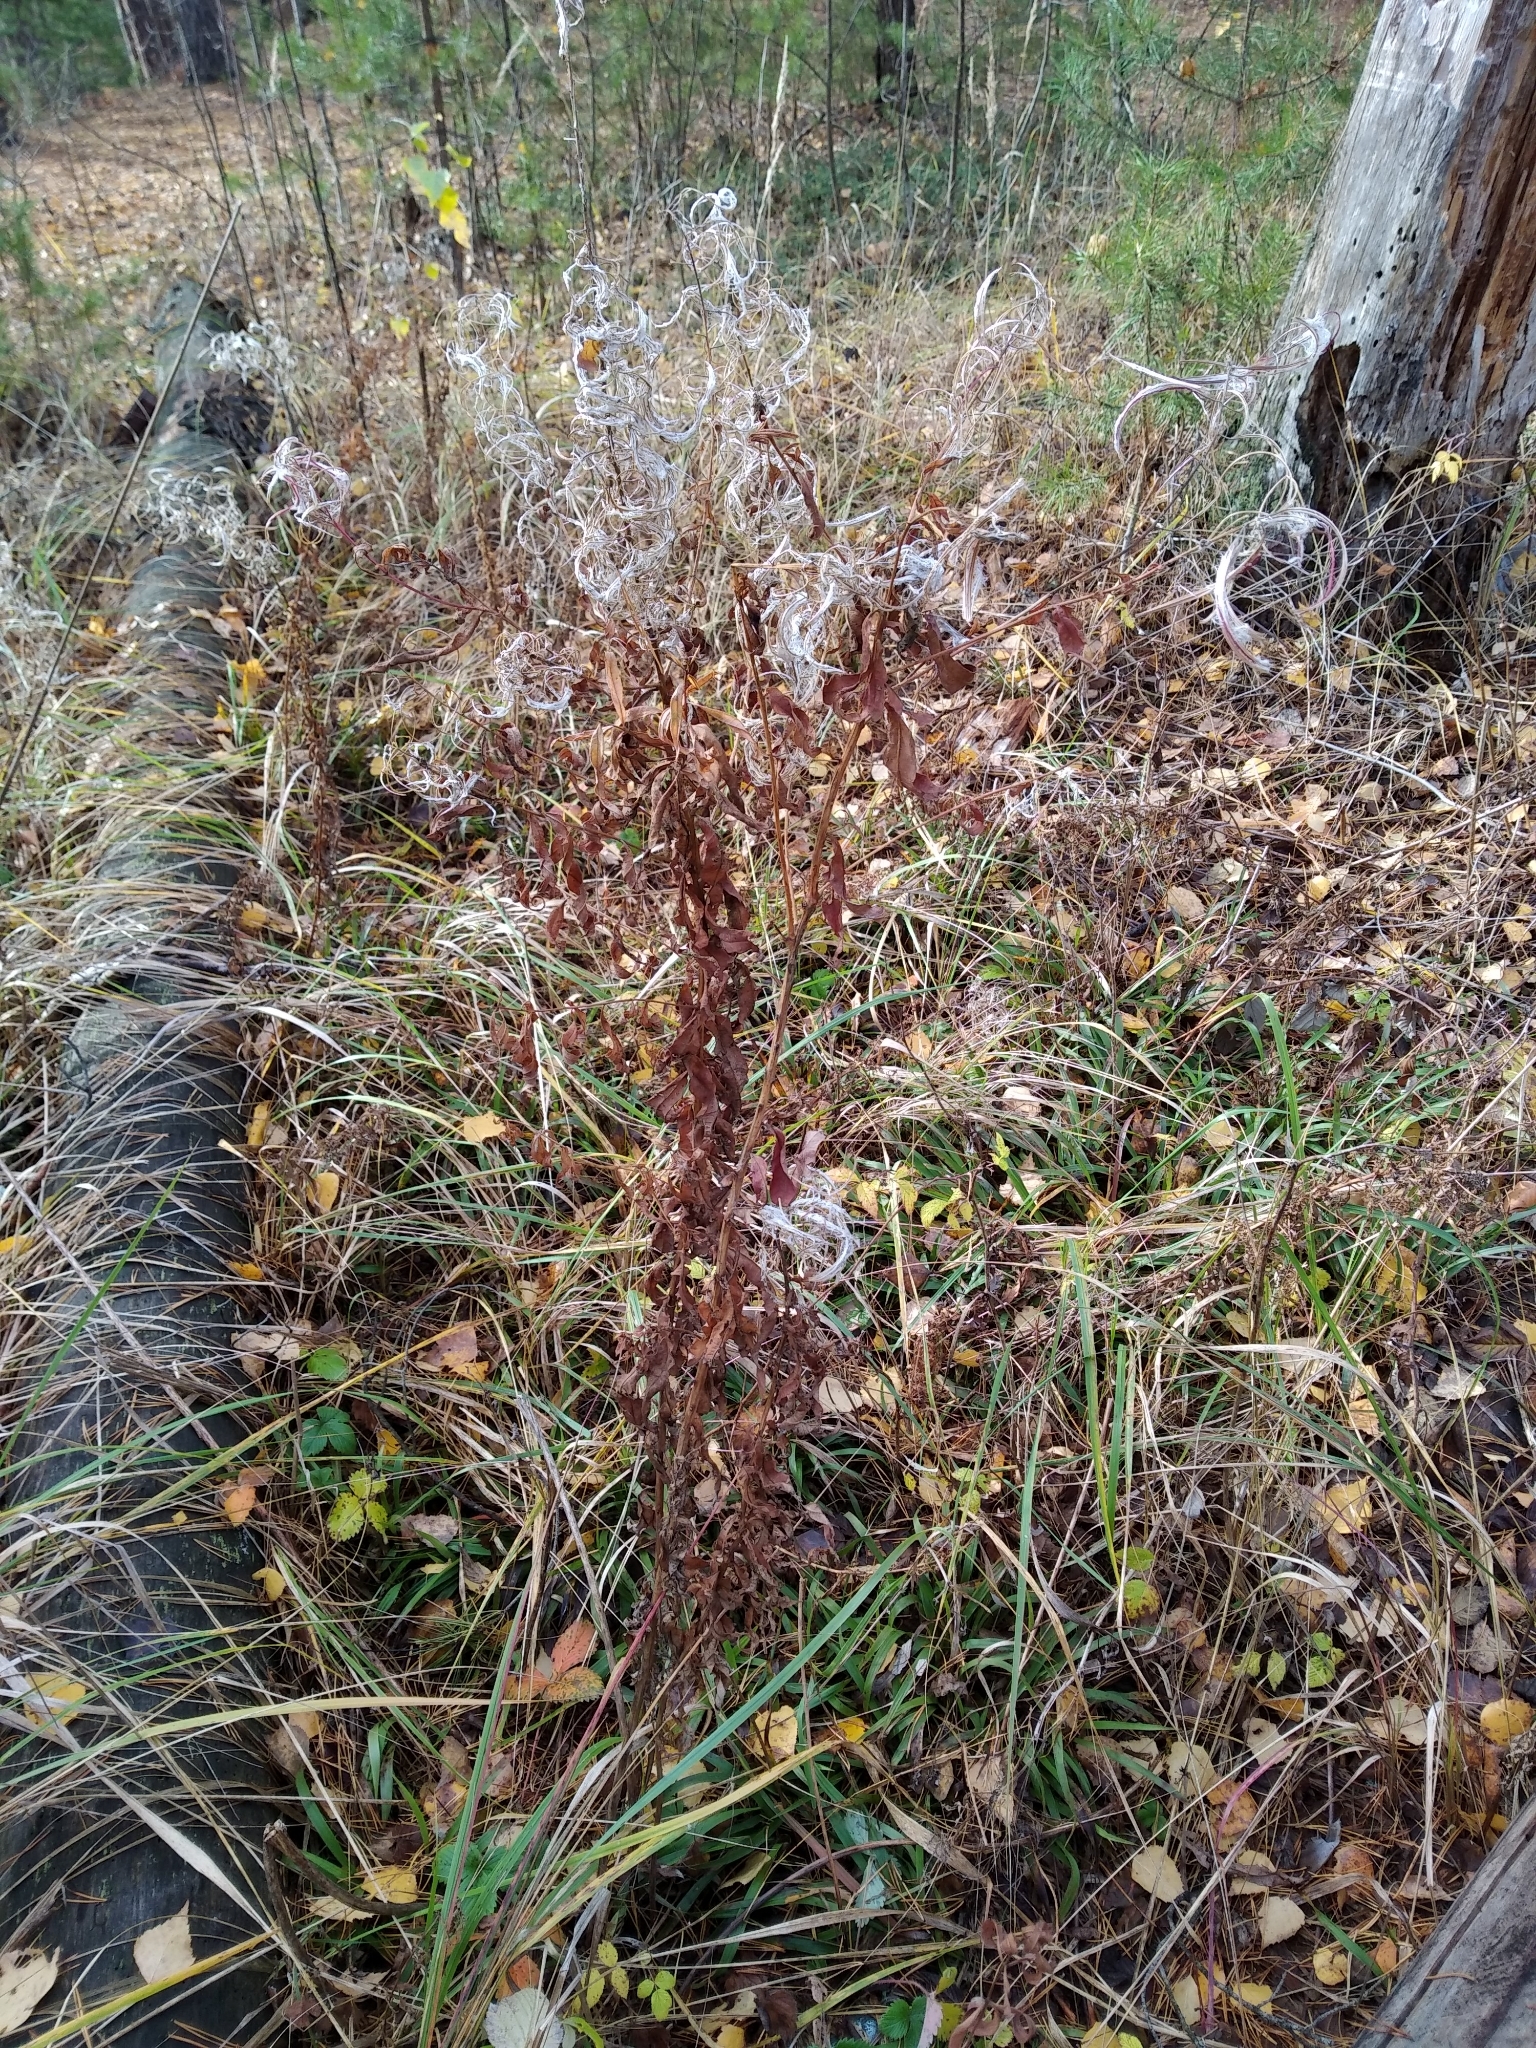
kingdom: Plantae
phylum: Tracheophyta
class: Magnoliopsida
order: Myrtales
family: Onagraceae
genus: Chamaenerion
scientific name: Chamaenerion angustifolium
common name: Fireweed
